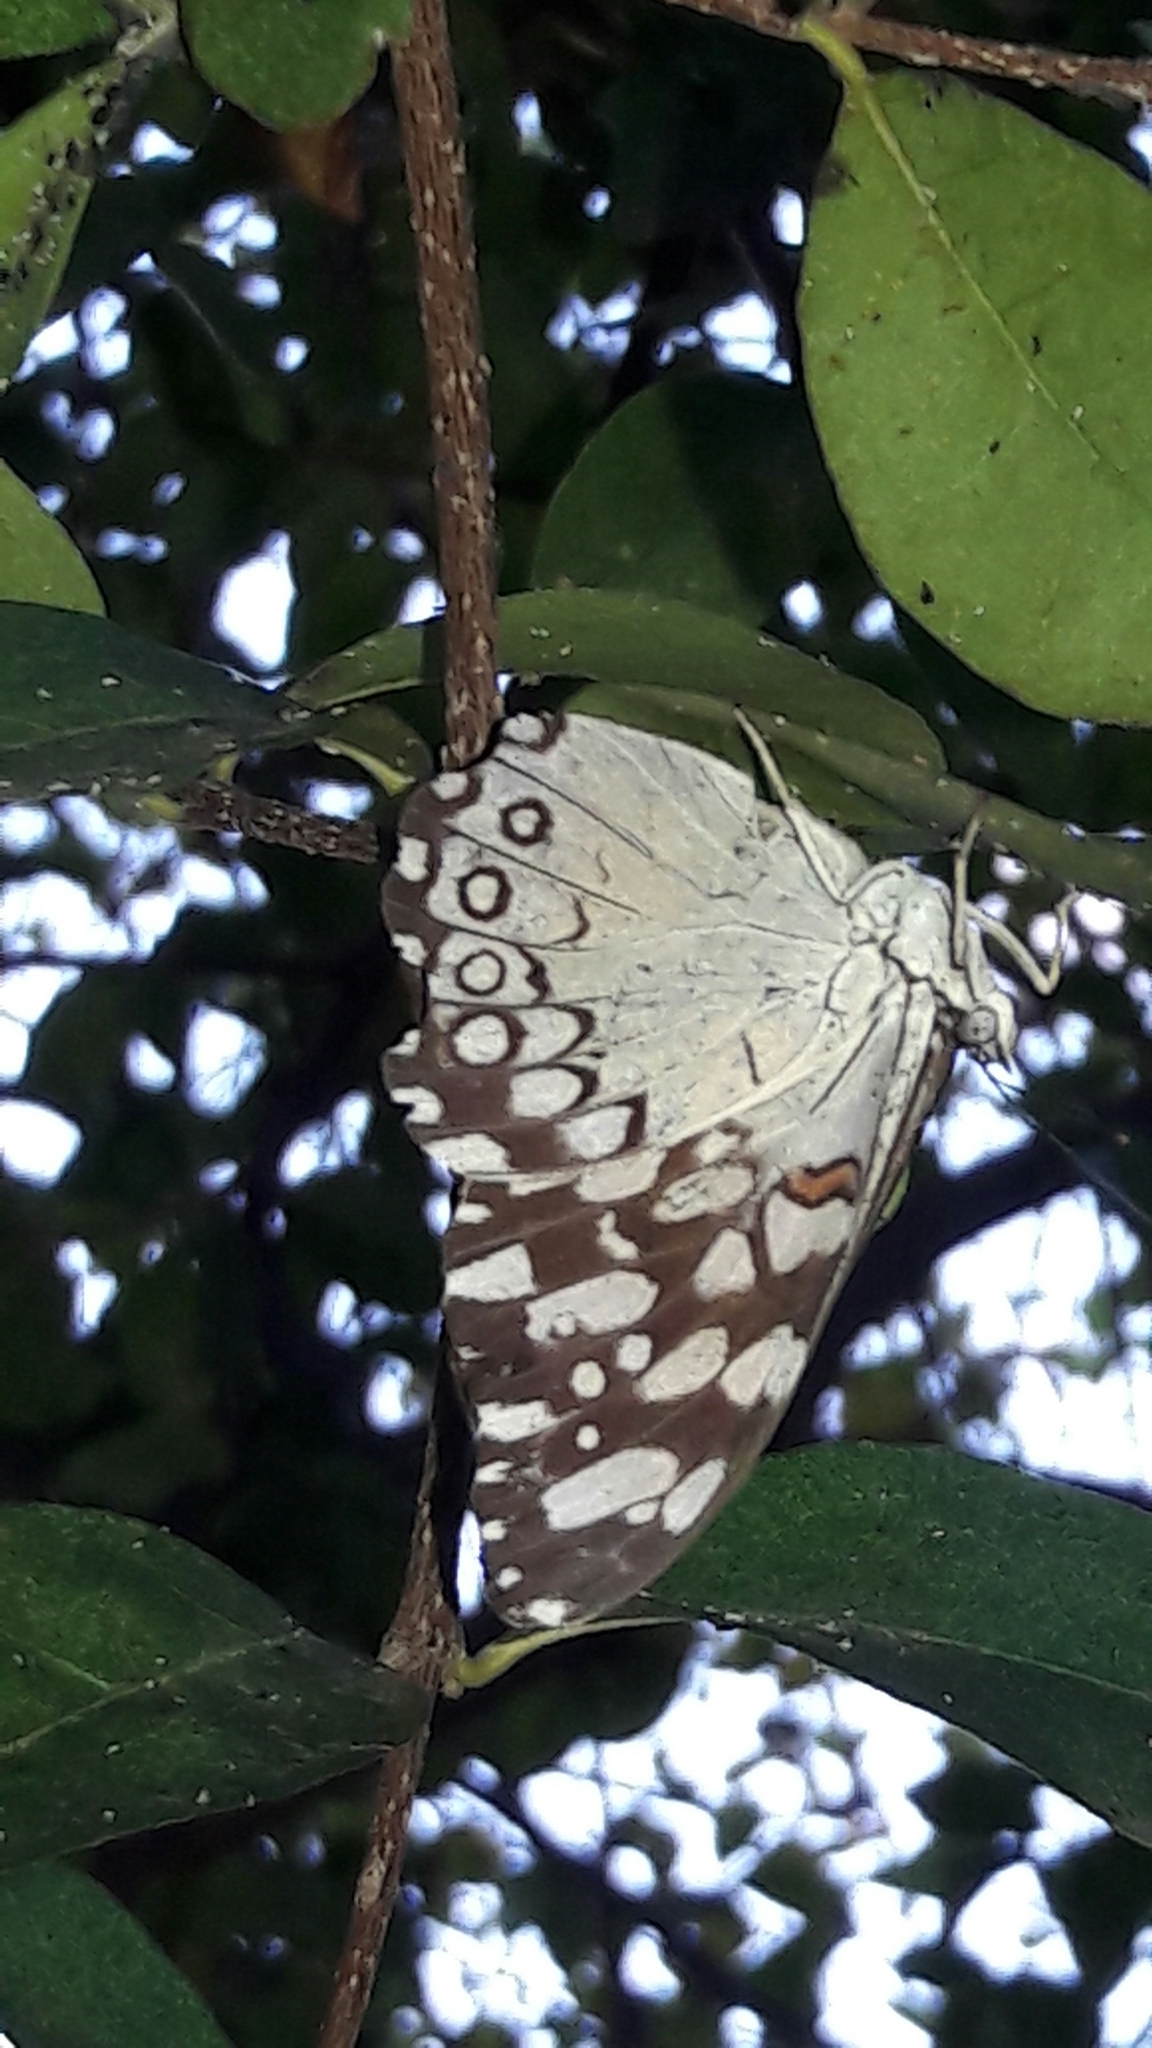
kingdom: Animalia
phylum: Arthropoda
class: Insecta
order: Lepidoptera
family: Nymphalidae
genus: Hamadryas
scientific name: Hamadryas feronia
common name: Variable cracker
